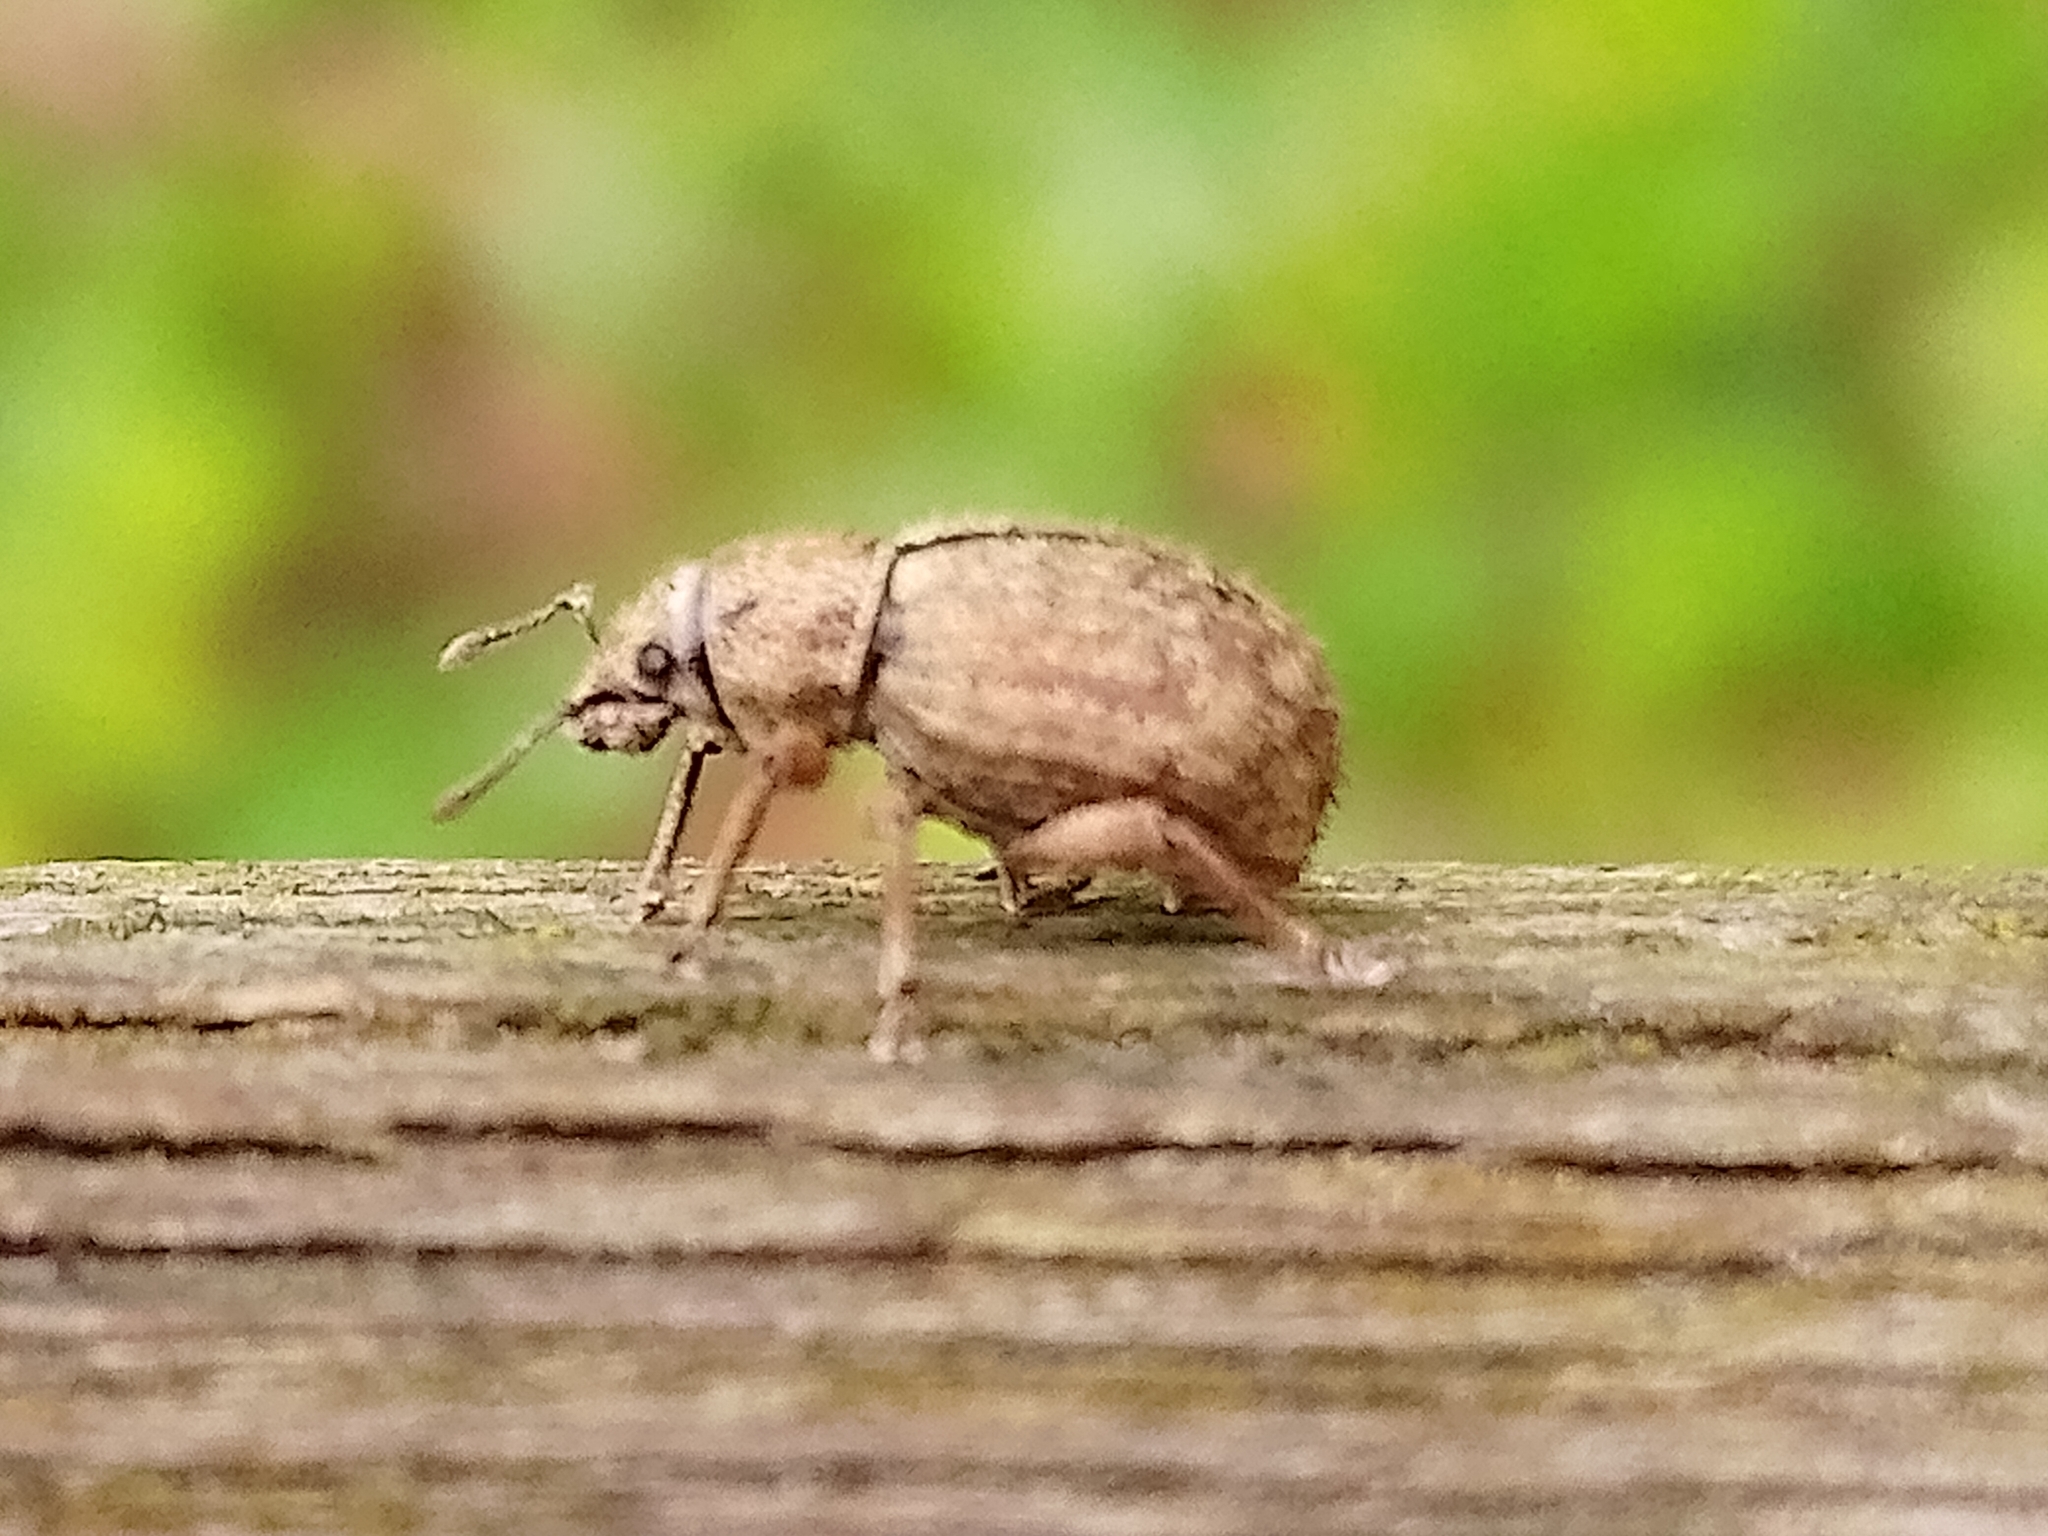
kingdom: Animalia
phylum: Arthropoda
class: Insecta
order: Coleoptera
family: Curculionidae
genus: Strophosoma
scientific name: Strophosoma melanogrammum
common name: Weevil
